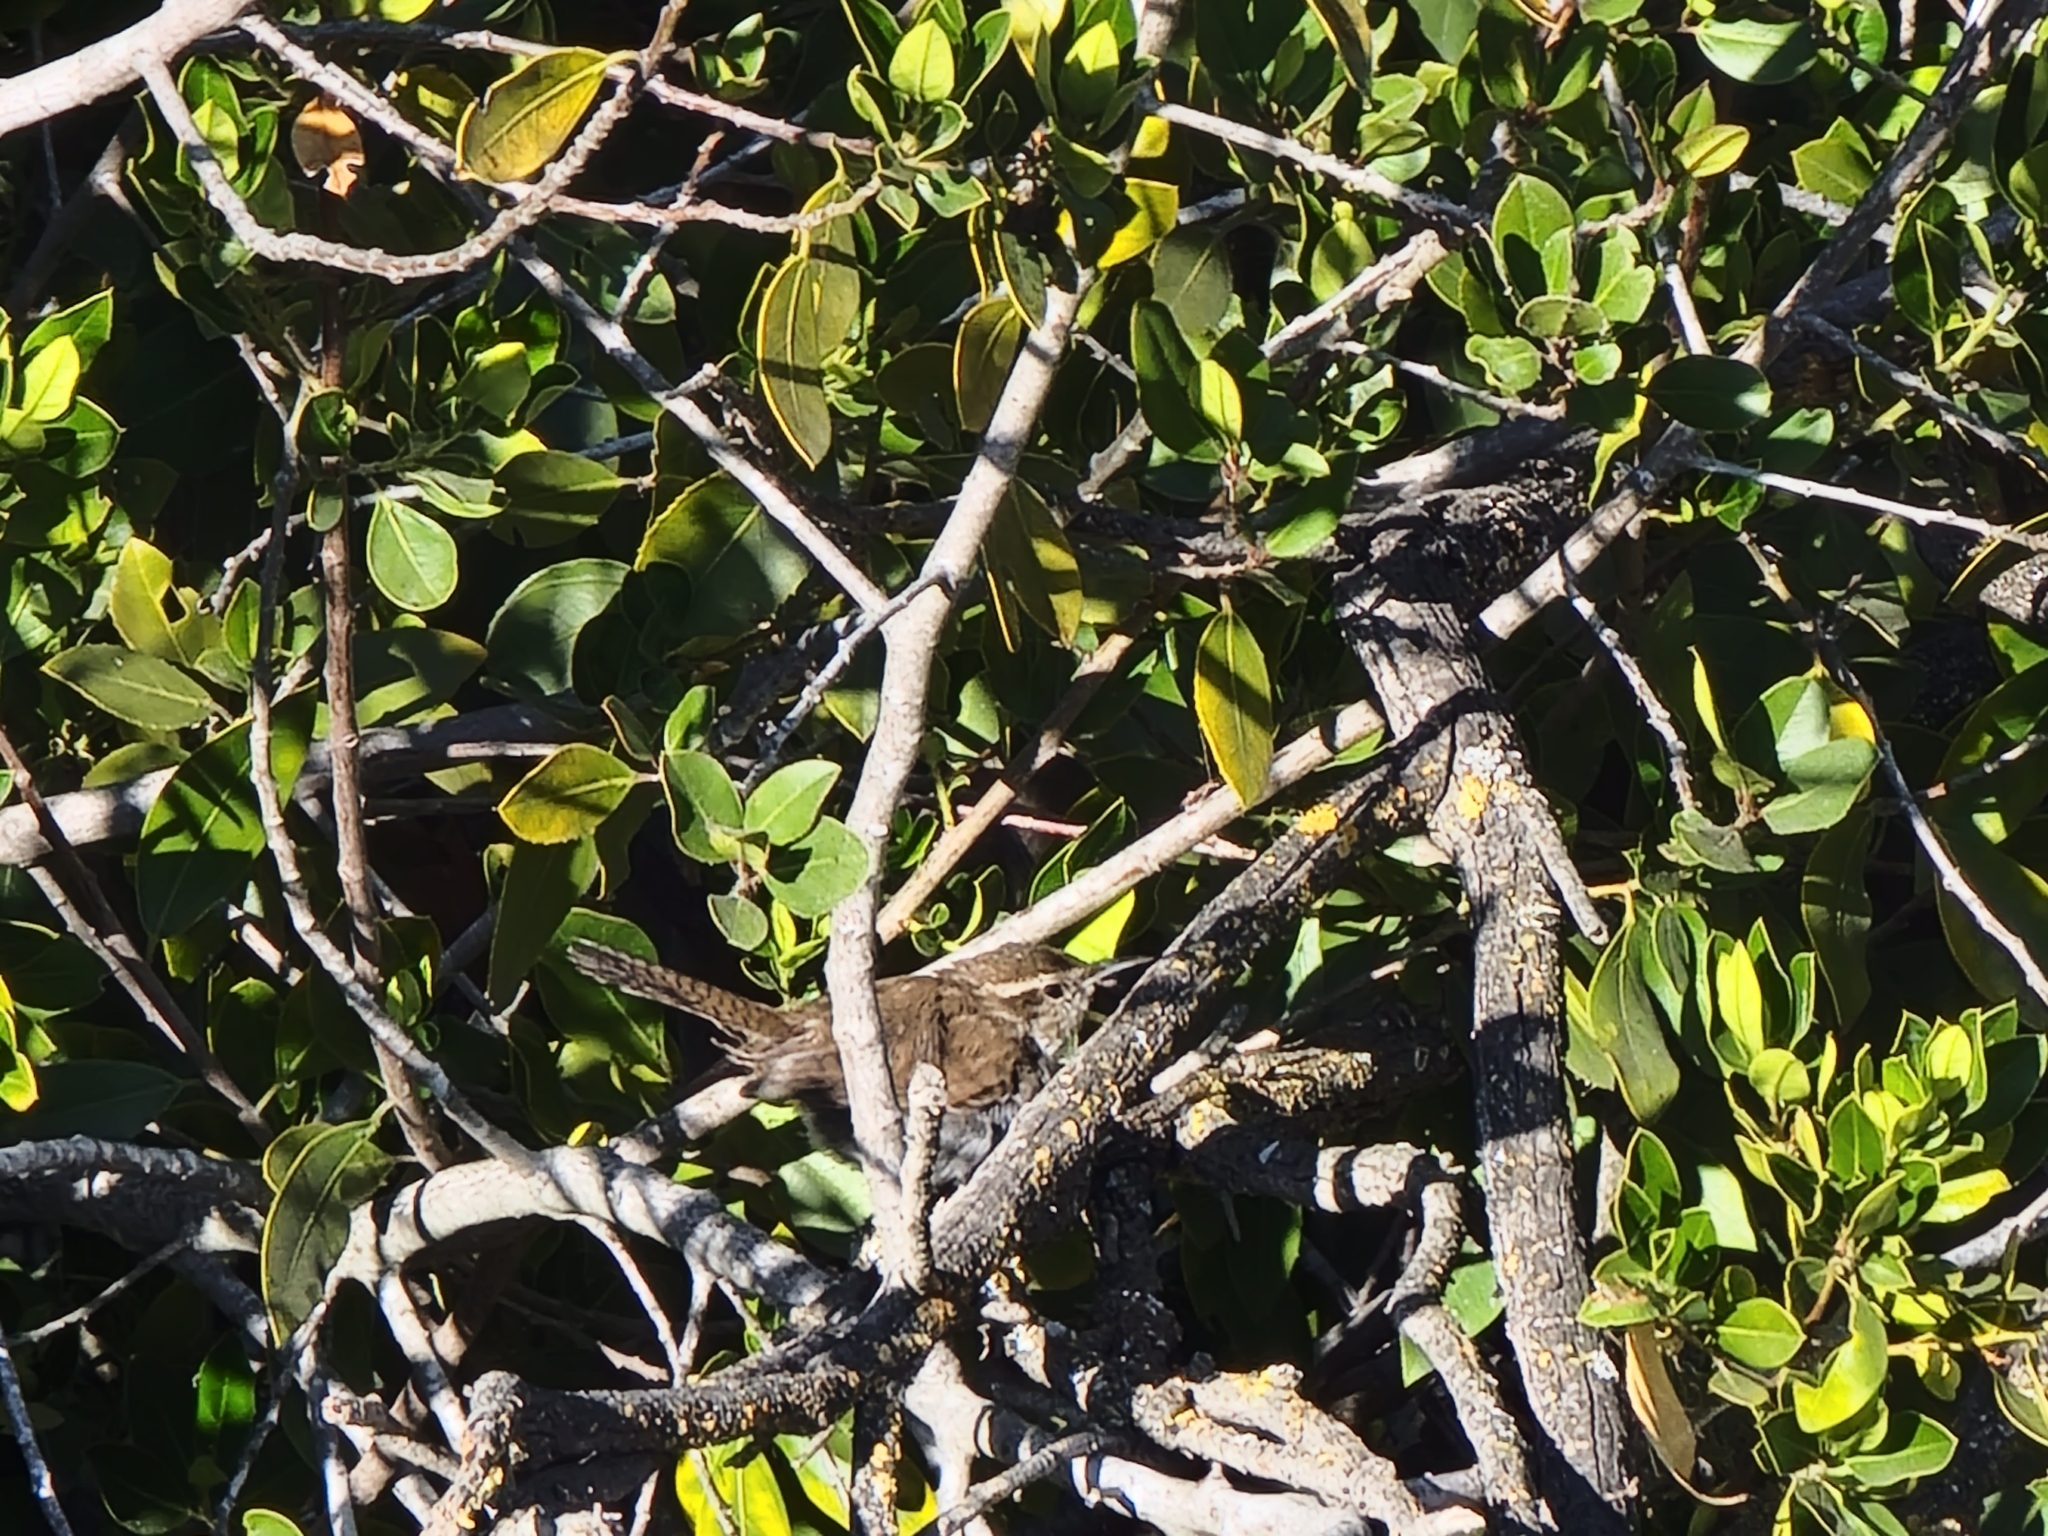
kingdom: Animalia
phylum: Chordata
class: Aves
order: Passeriformes
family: Troglodytidae
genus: Thryomanes
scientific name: Thryomanes bewickii
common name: Bewick's wren
